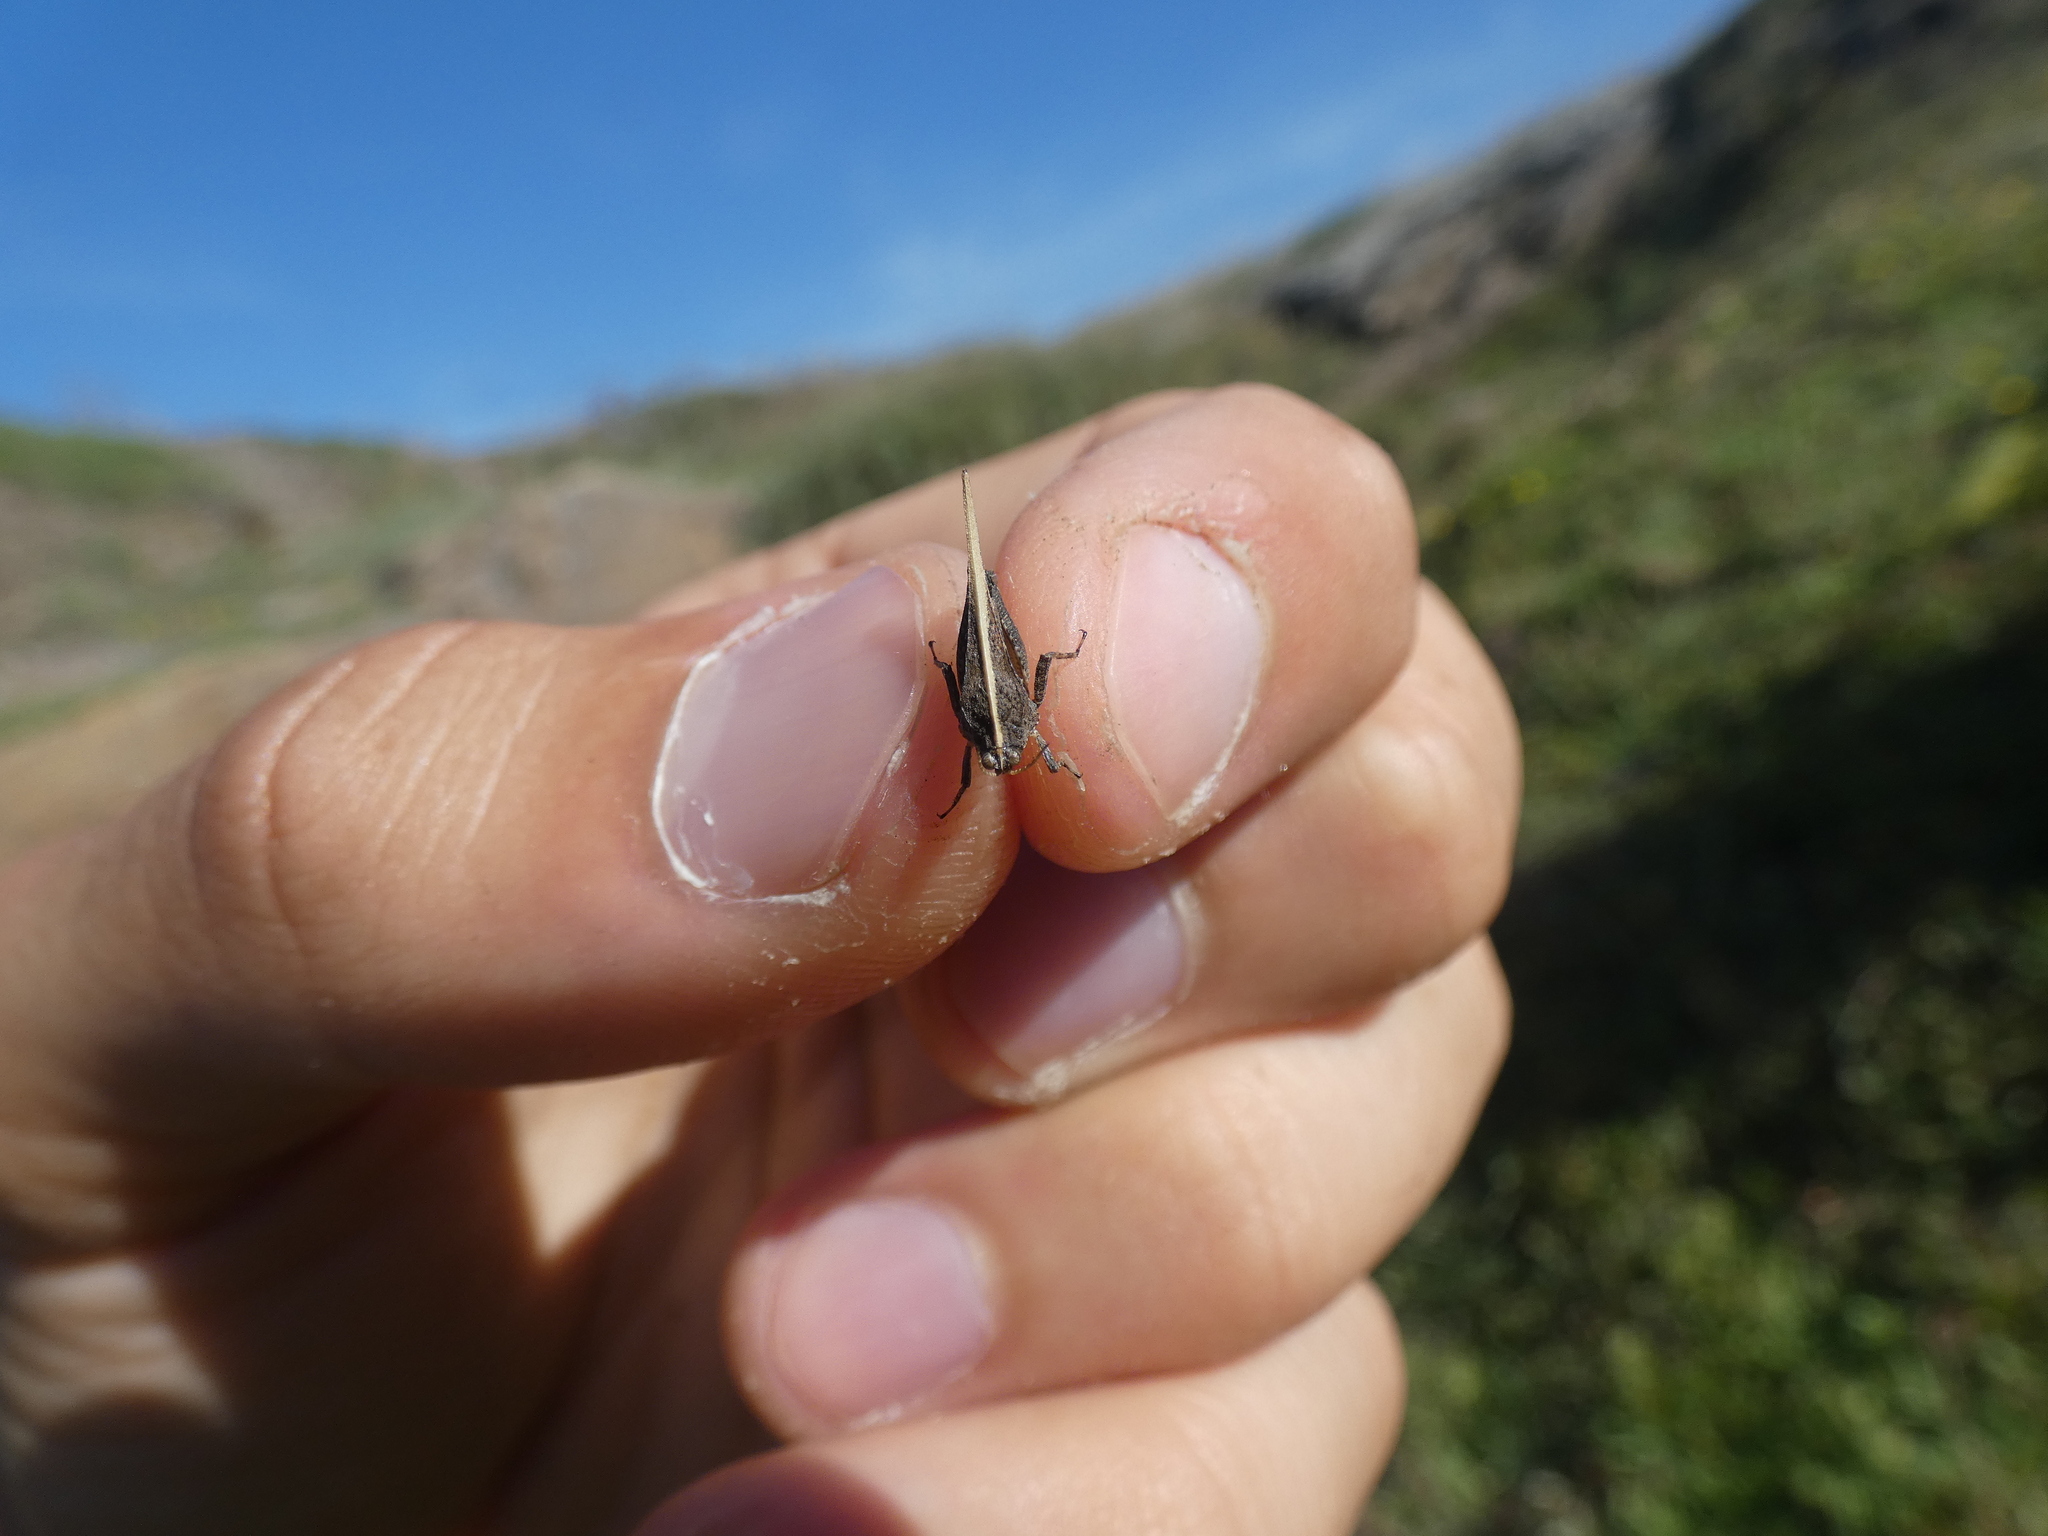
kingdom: Animalia
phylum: Arthropoda
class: Insecta
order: Orthoptera
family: Tetrigidae
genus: Tetrix
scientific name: Tetrix subulata
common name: Slender ground-hopper
